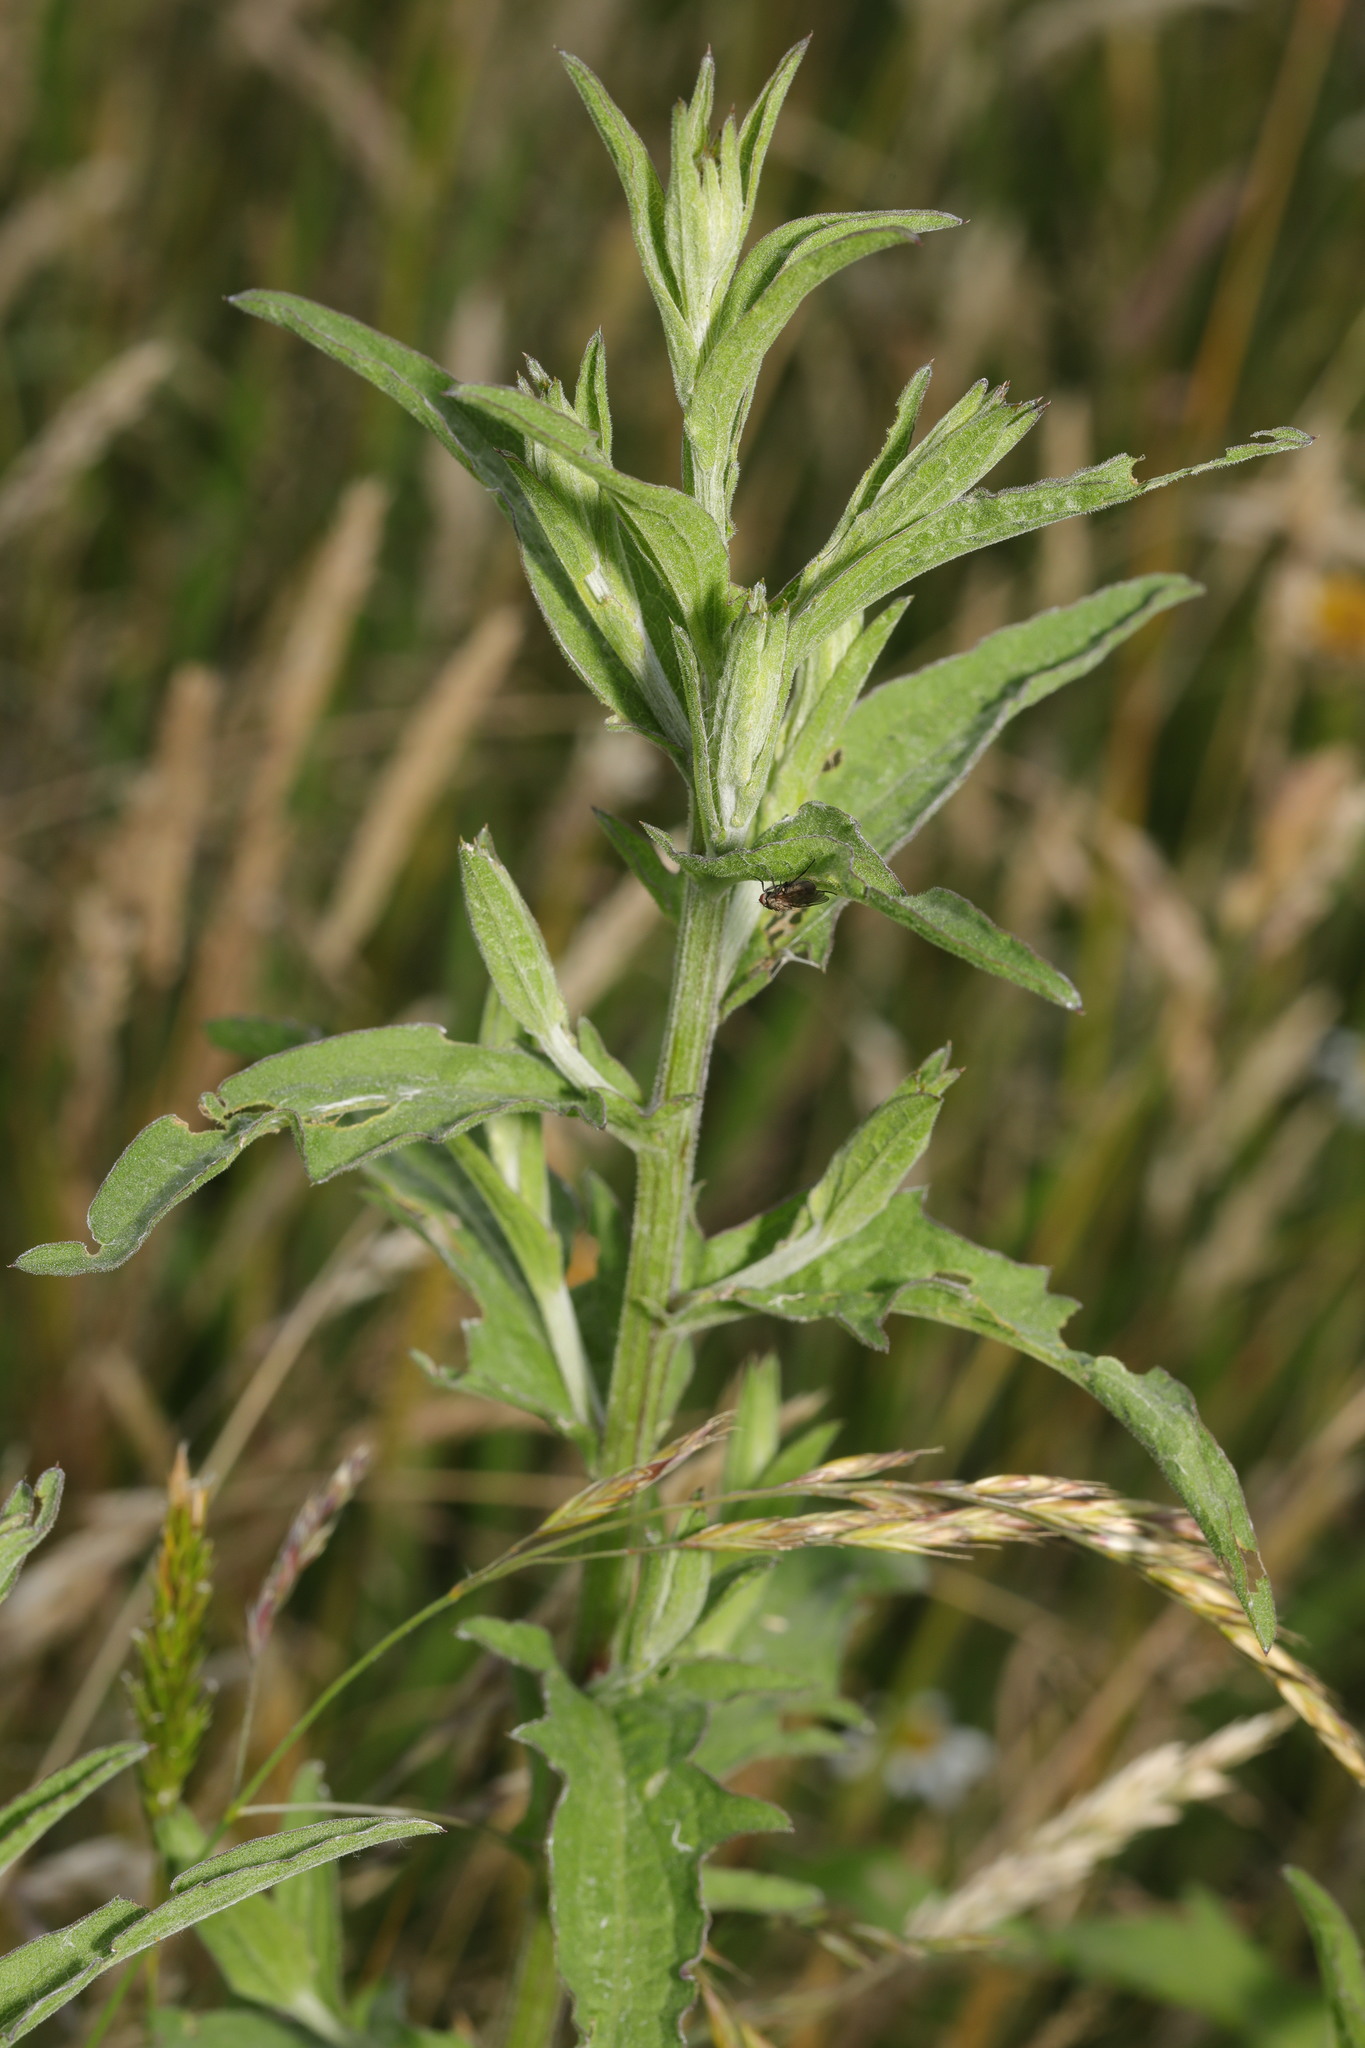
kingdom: Plantae
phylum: Tracheophyta
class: Magnoliopsida
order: Asterales
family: Asteraceae
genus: Centaurea
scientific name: Centaurea nigra
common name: Lesser knapweed
